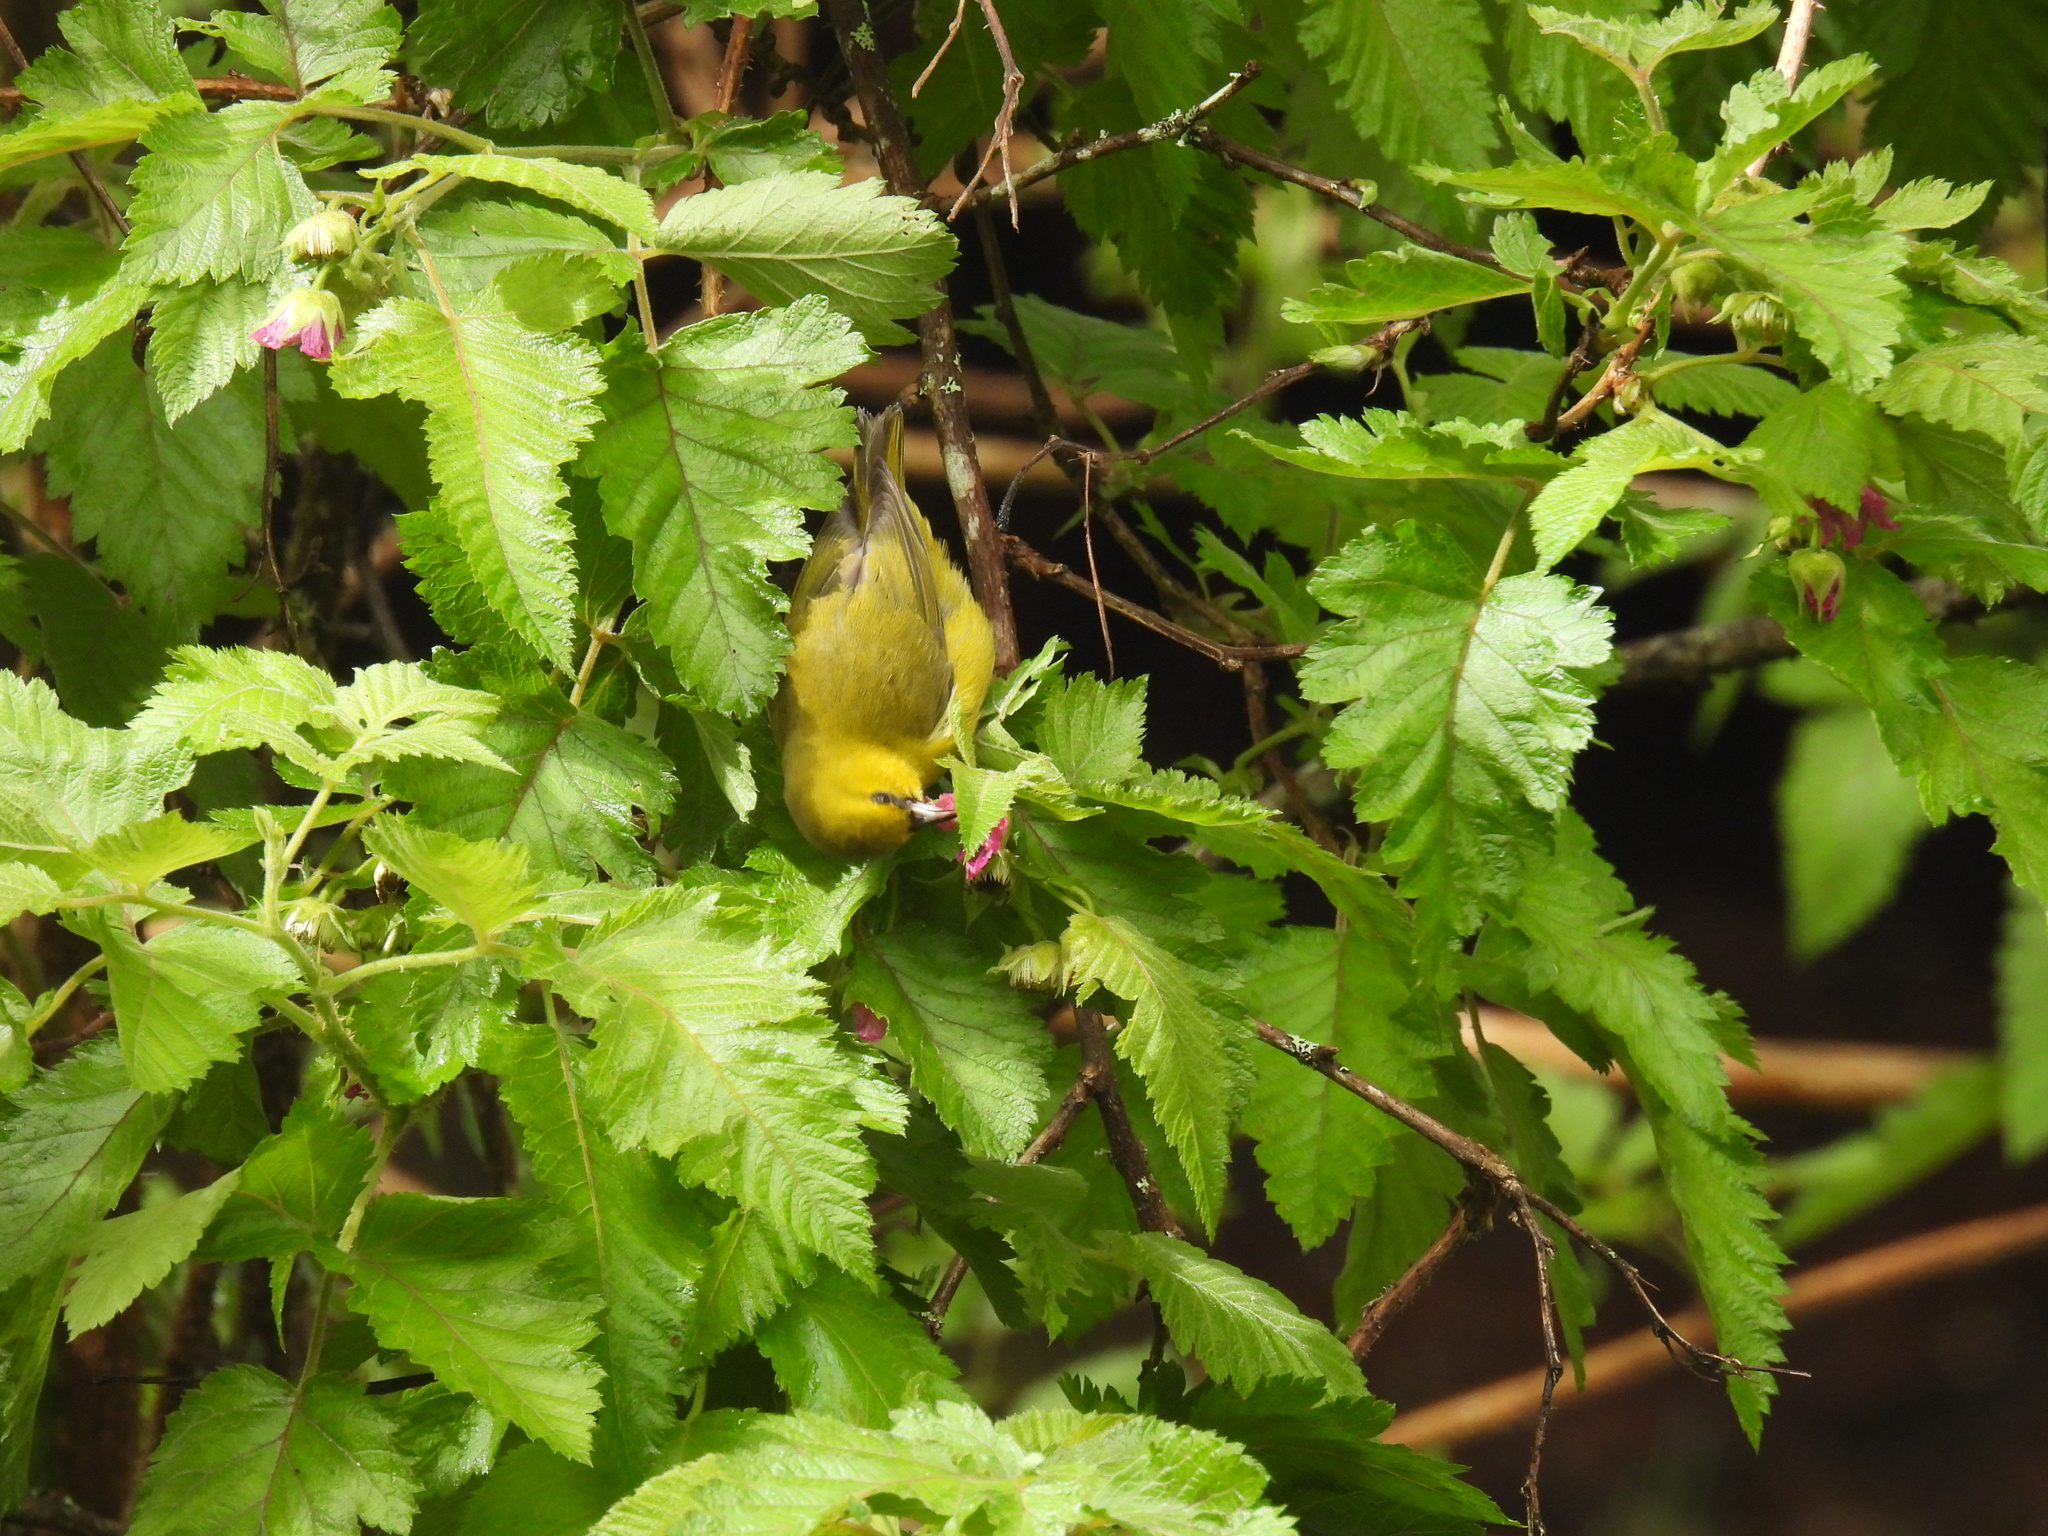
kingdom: Animalia
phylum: Chordata
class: Aves
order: Passeriformes
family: Fringillidae
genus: Chlorodrepanis
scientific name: Chlorodrepanis virens
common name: Hawaii amakihi
